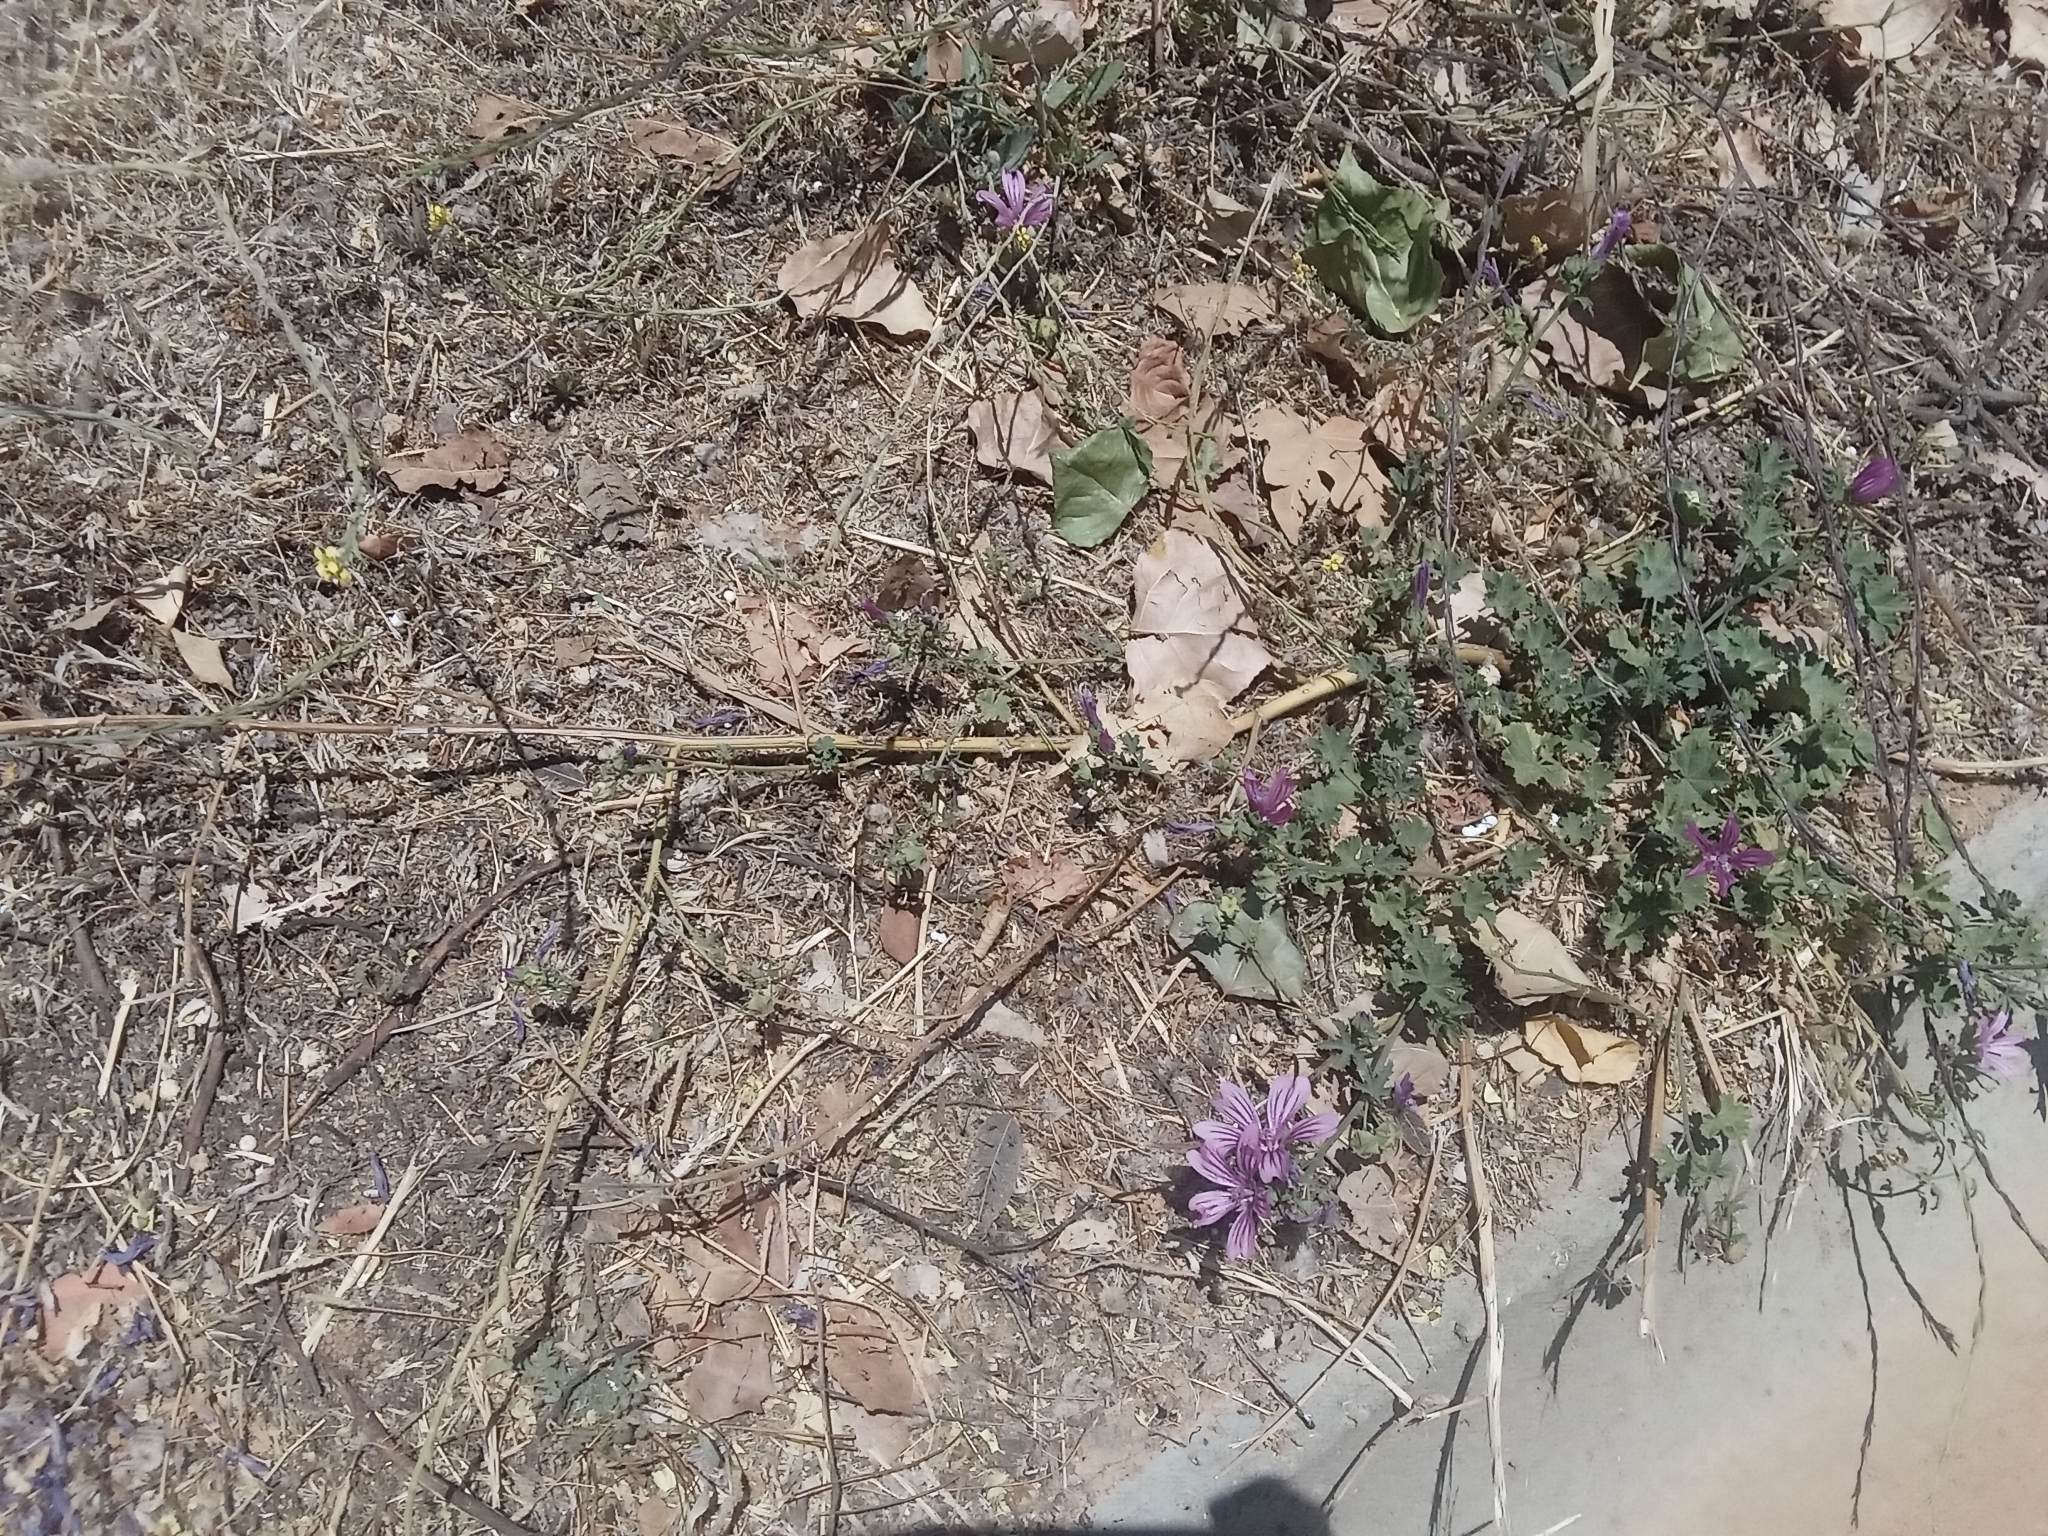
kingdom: Plantae
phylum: Tracheophyta
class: Magnoliopsida
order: Malvales
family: Malvaceae
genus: Malva
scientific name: Malva sylvestris
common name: Common mallow
